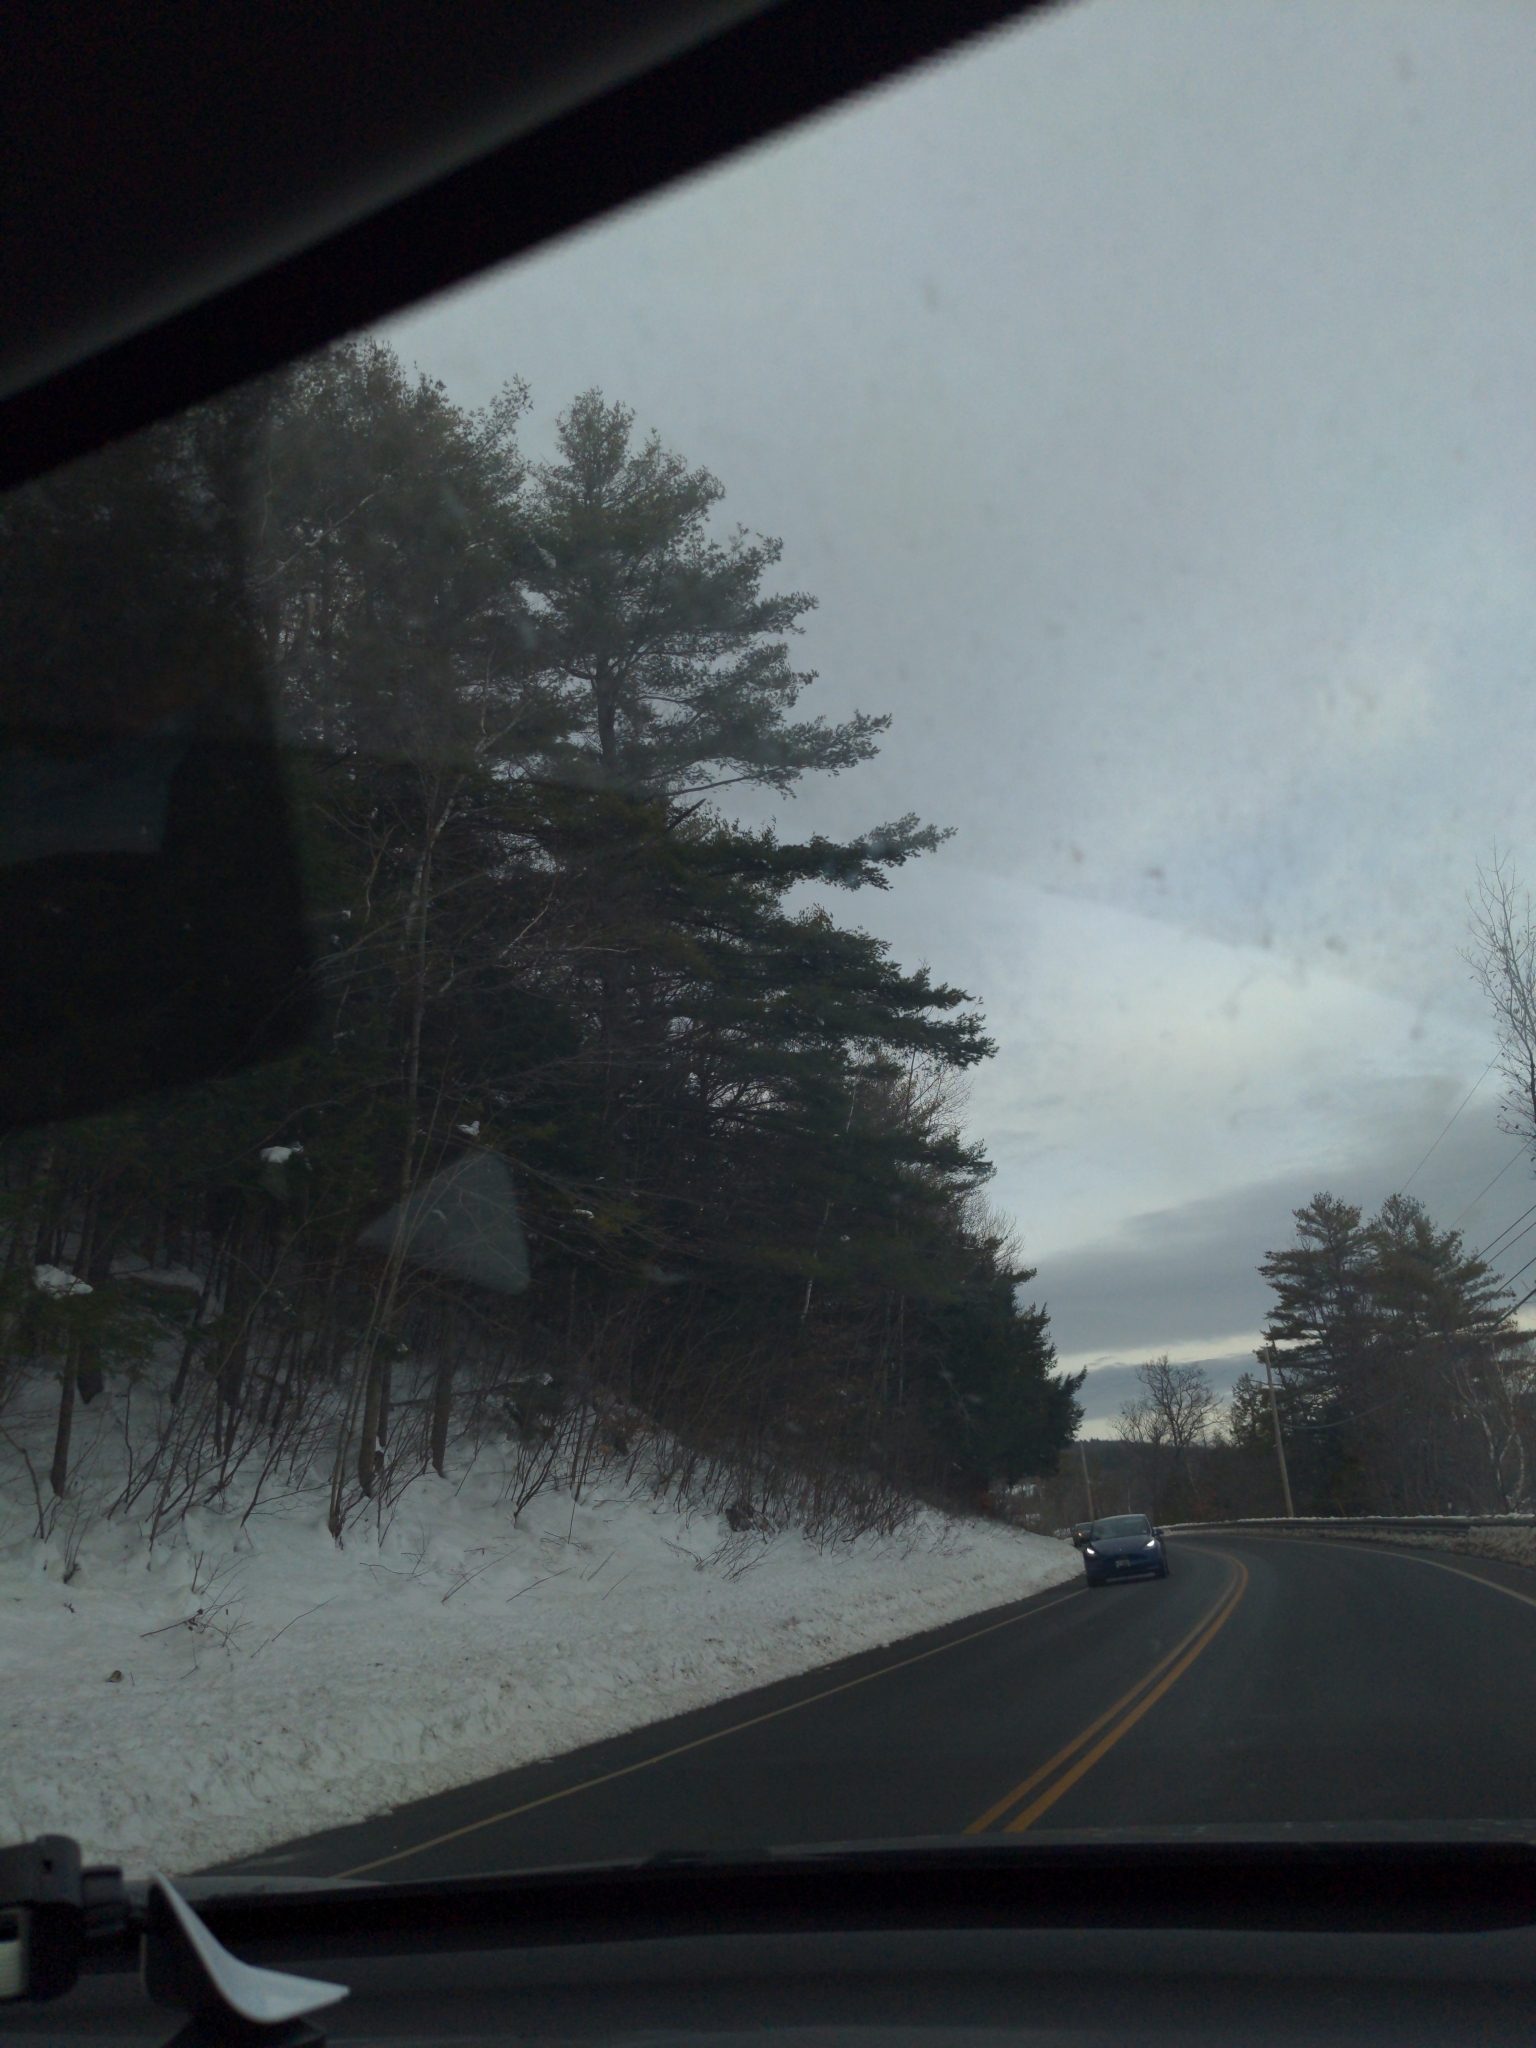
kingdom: Plantae
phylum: Tracheophyta
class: Pinopsida
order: Pinales
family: Pinaceae
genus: Pinus
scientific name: Pinus strobus
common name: Weymouth pine
